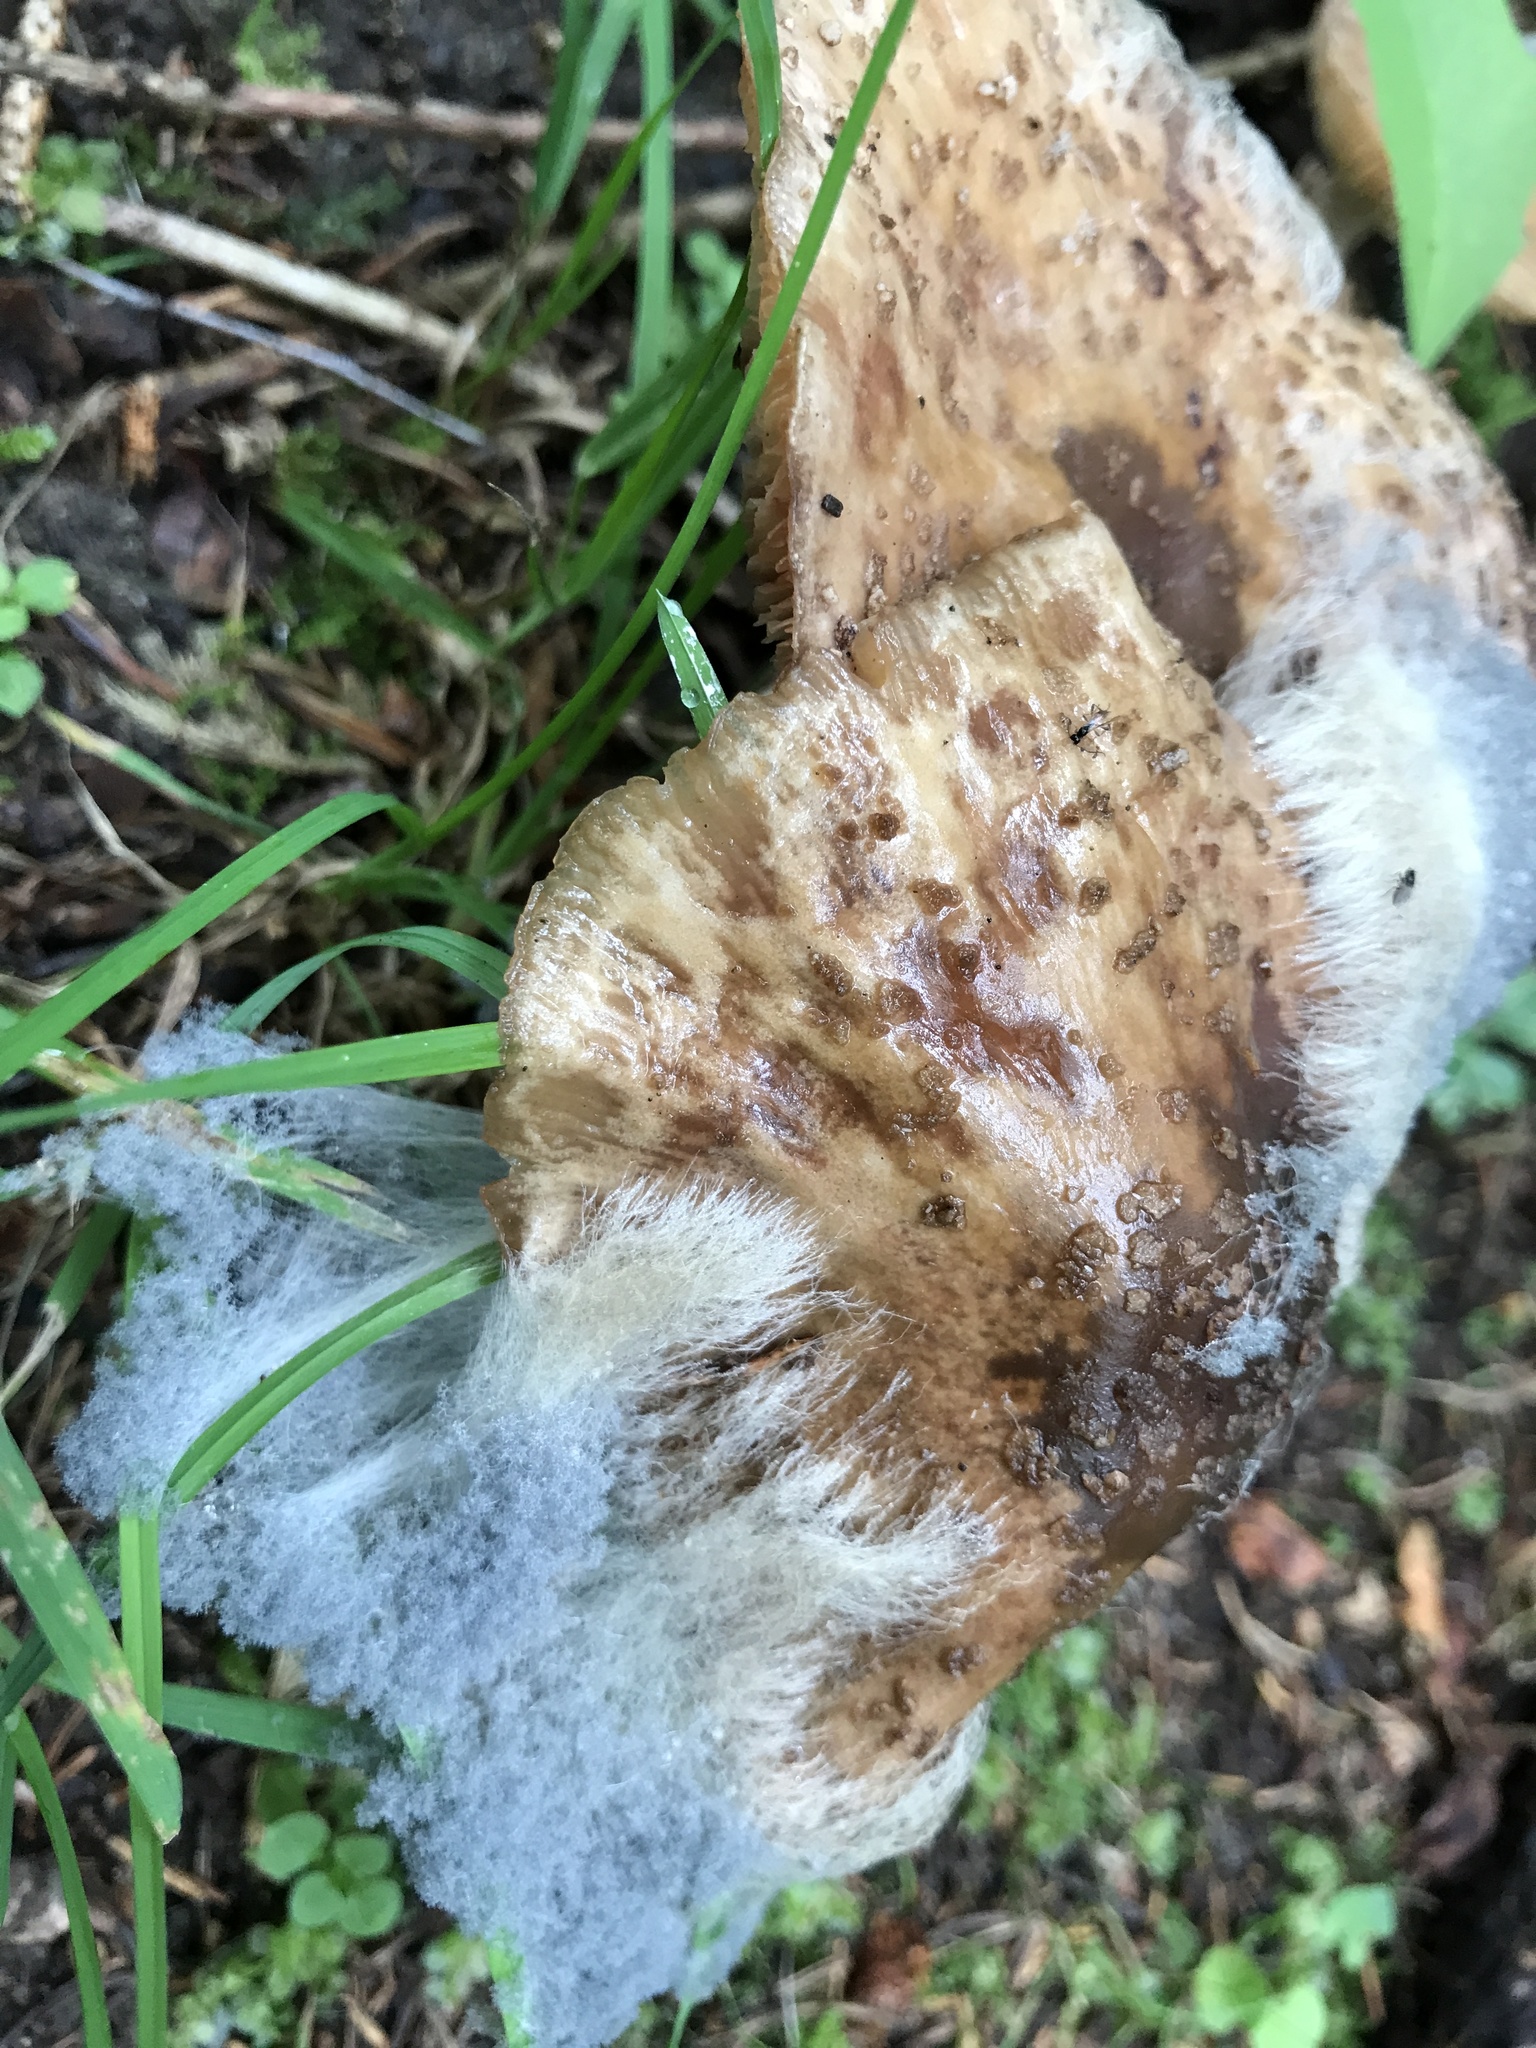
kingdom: Fungi
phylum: Mucoromycota
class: Mucoromycetes
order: Mucorales
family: Rhizopodaceae
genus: Syzygites
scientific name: Syzygites megalocarpus
